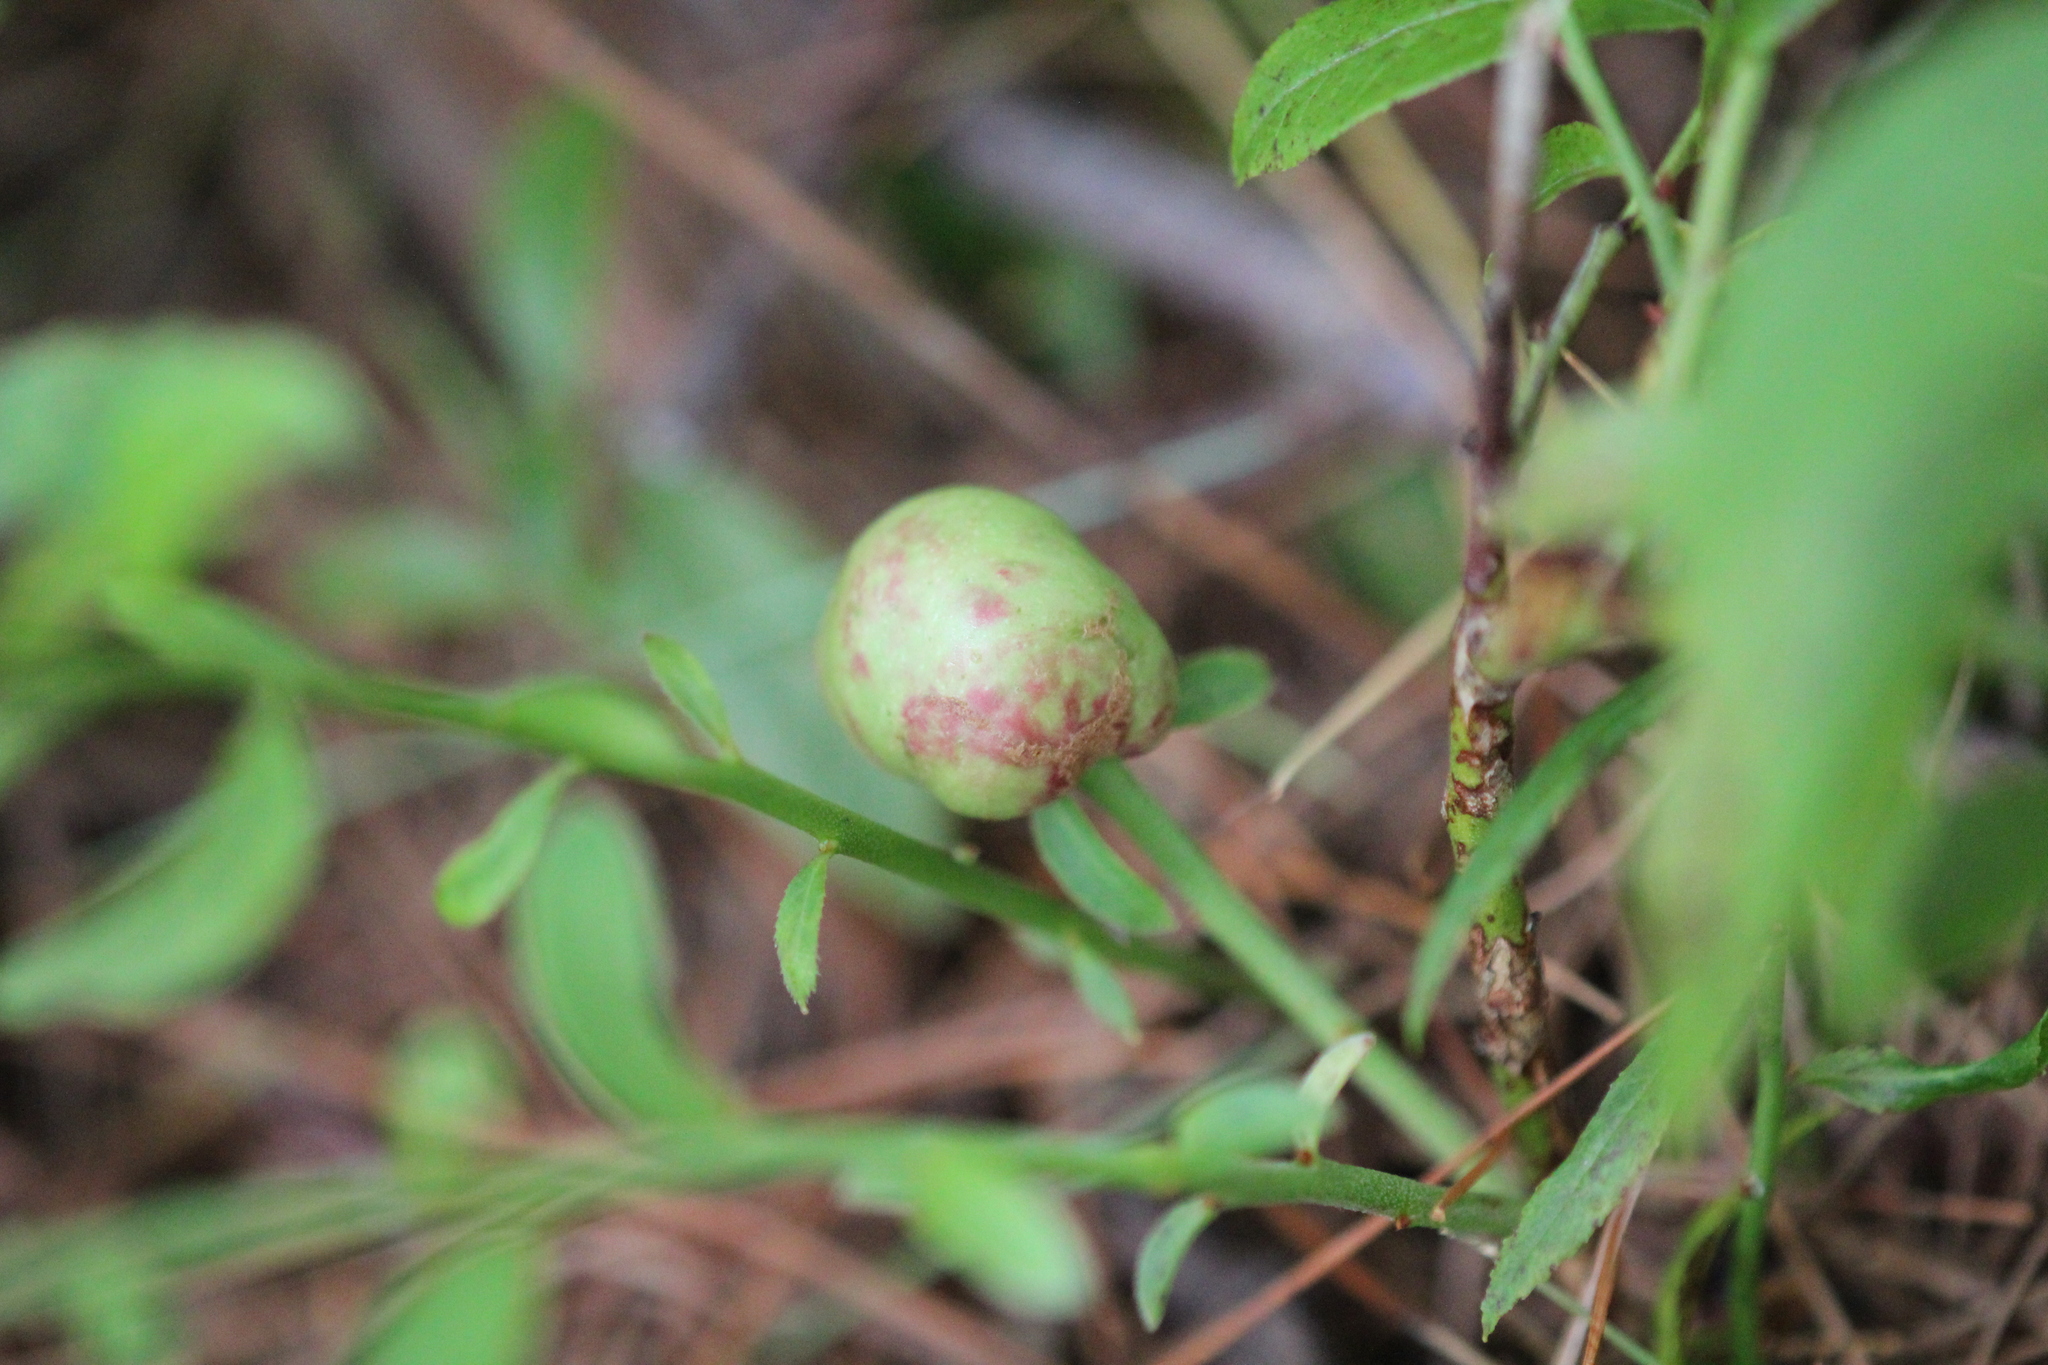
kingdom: Animalia
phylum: Arthropoda
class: Insecta
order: Hymenoptera
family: Pteromalidae
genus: Hemadas
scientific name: Hemadas nubilipennis
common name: Blueberry stem gall wasp
